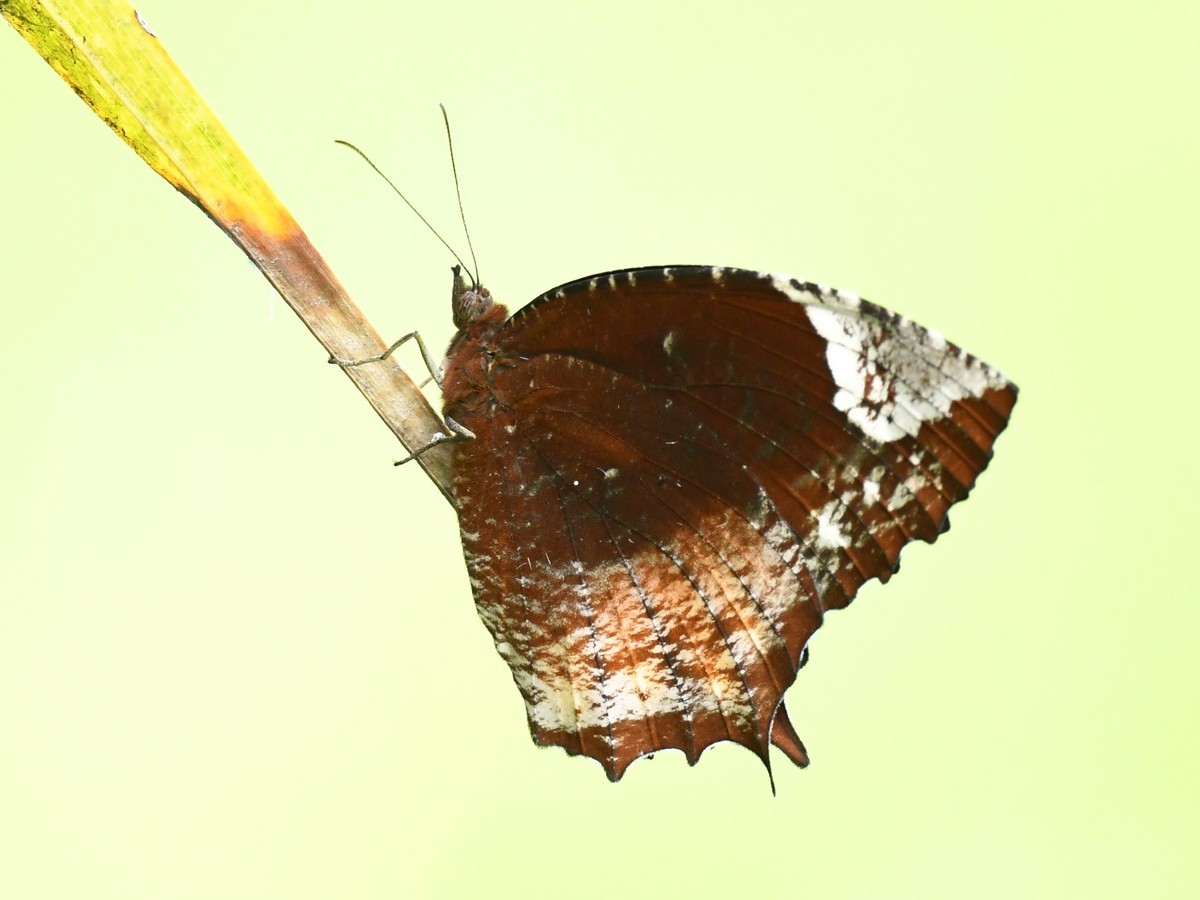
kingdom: Animalia
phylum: Arthropoda
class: Insecta
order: Lepidoptera
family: Nymphalidae
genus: Elymnias
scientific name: Elymnias caudata
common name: Tailed palmfly
